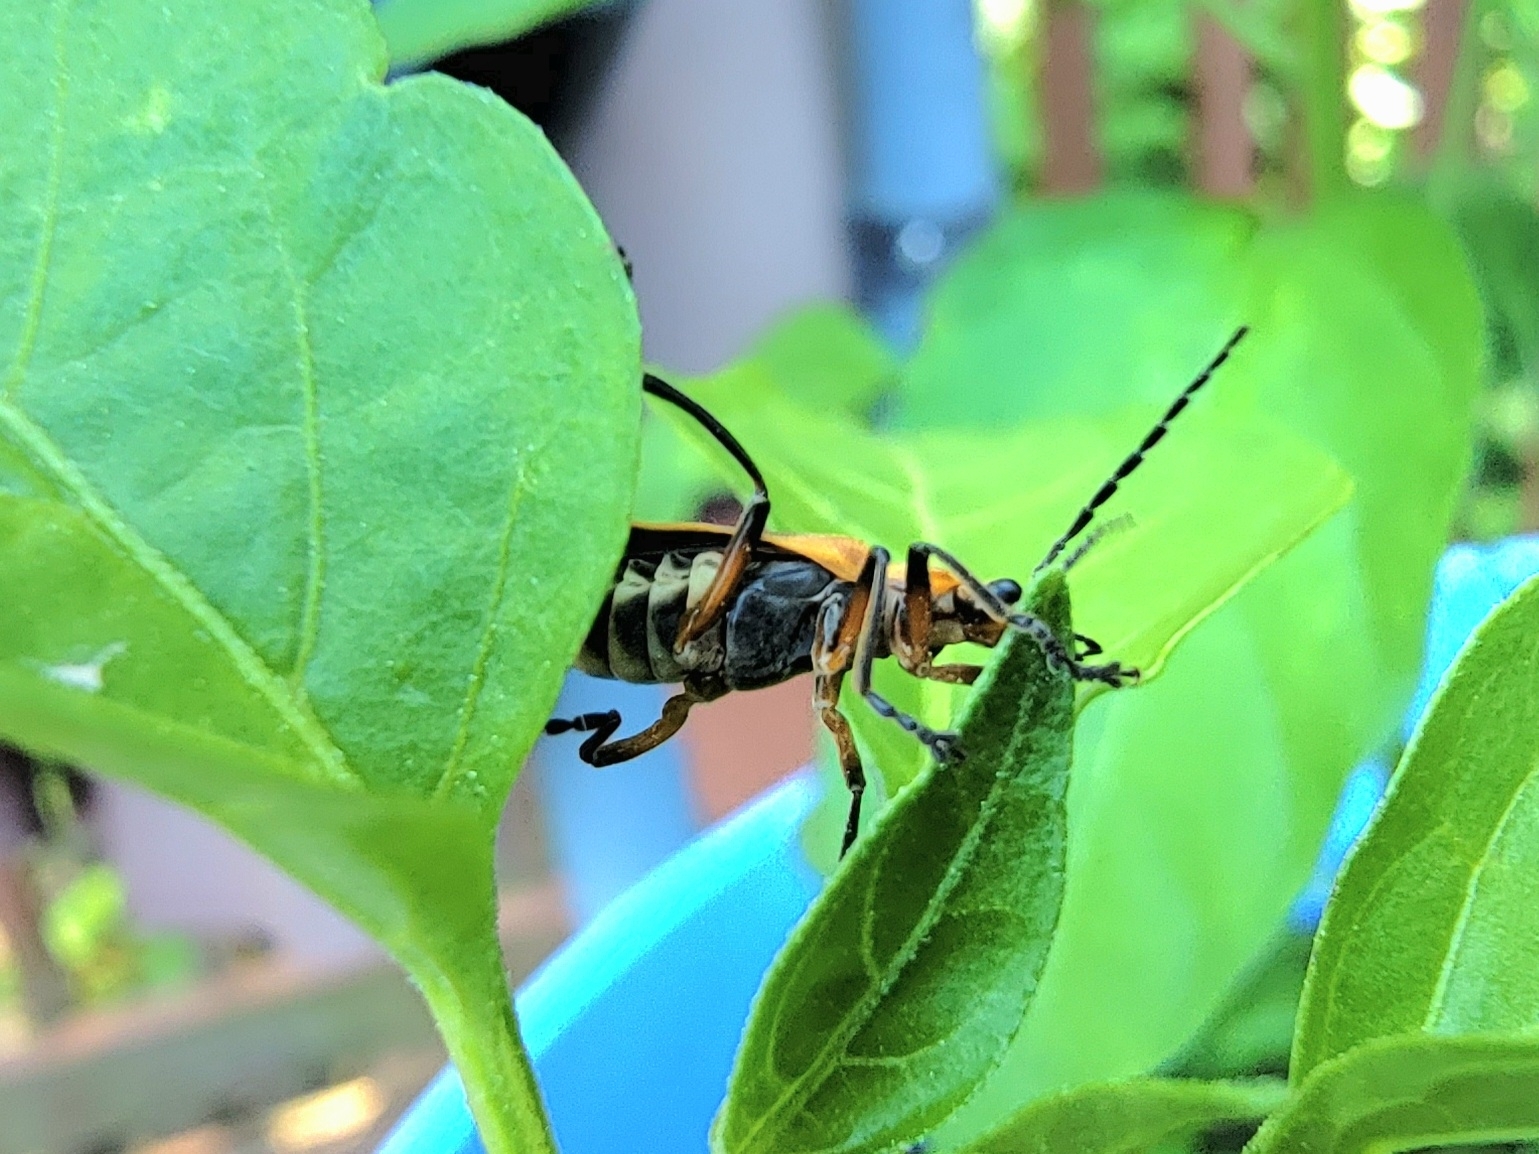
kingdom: Animalia
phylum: Arthropoda
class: Insecta
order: Coleoptera
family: Cantharidae
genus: Chauliognathus
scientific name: Chauliognathus marginatus
